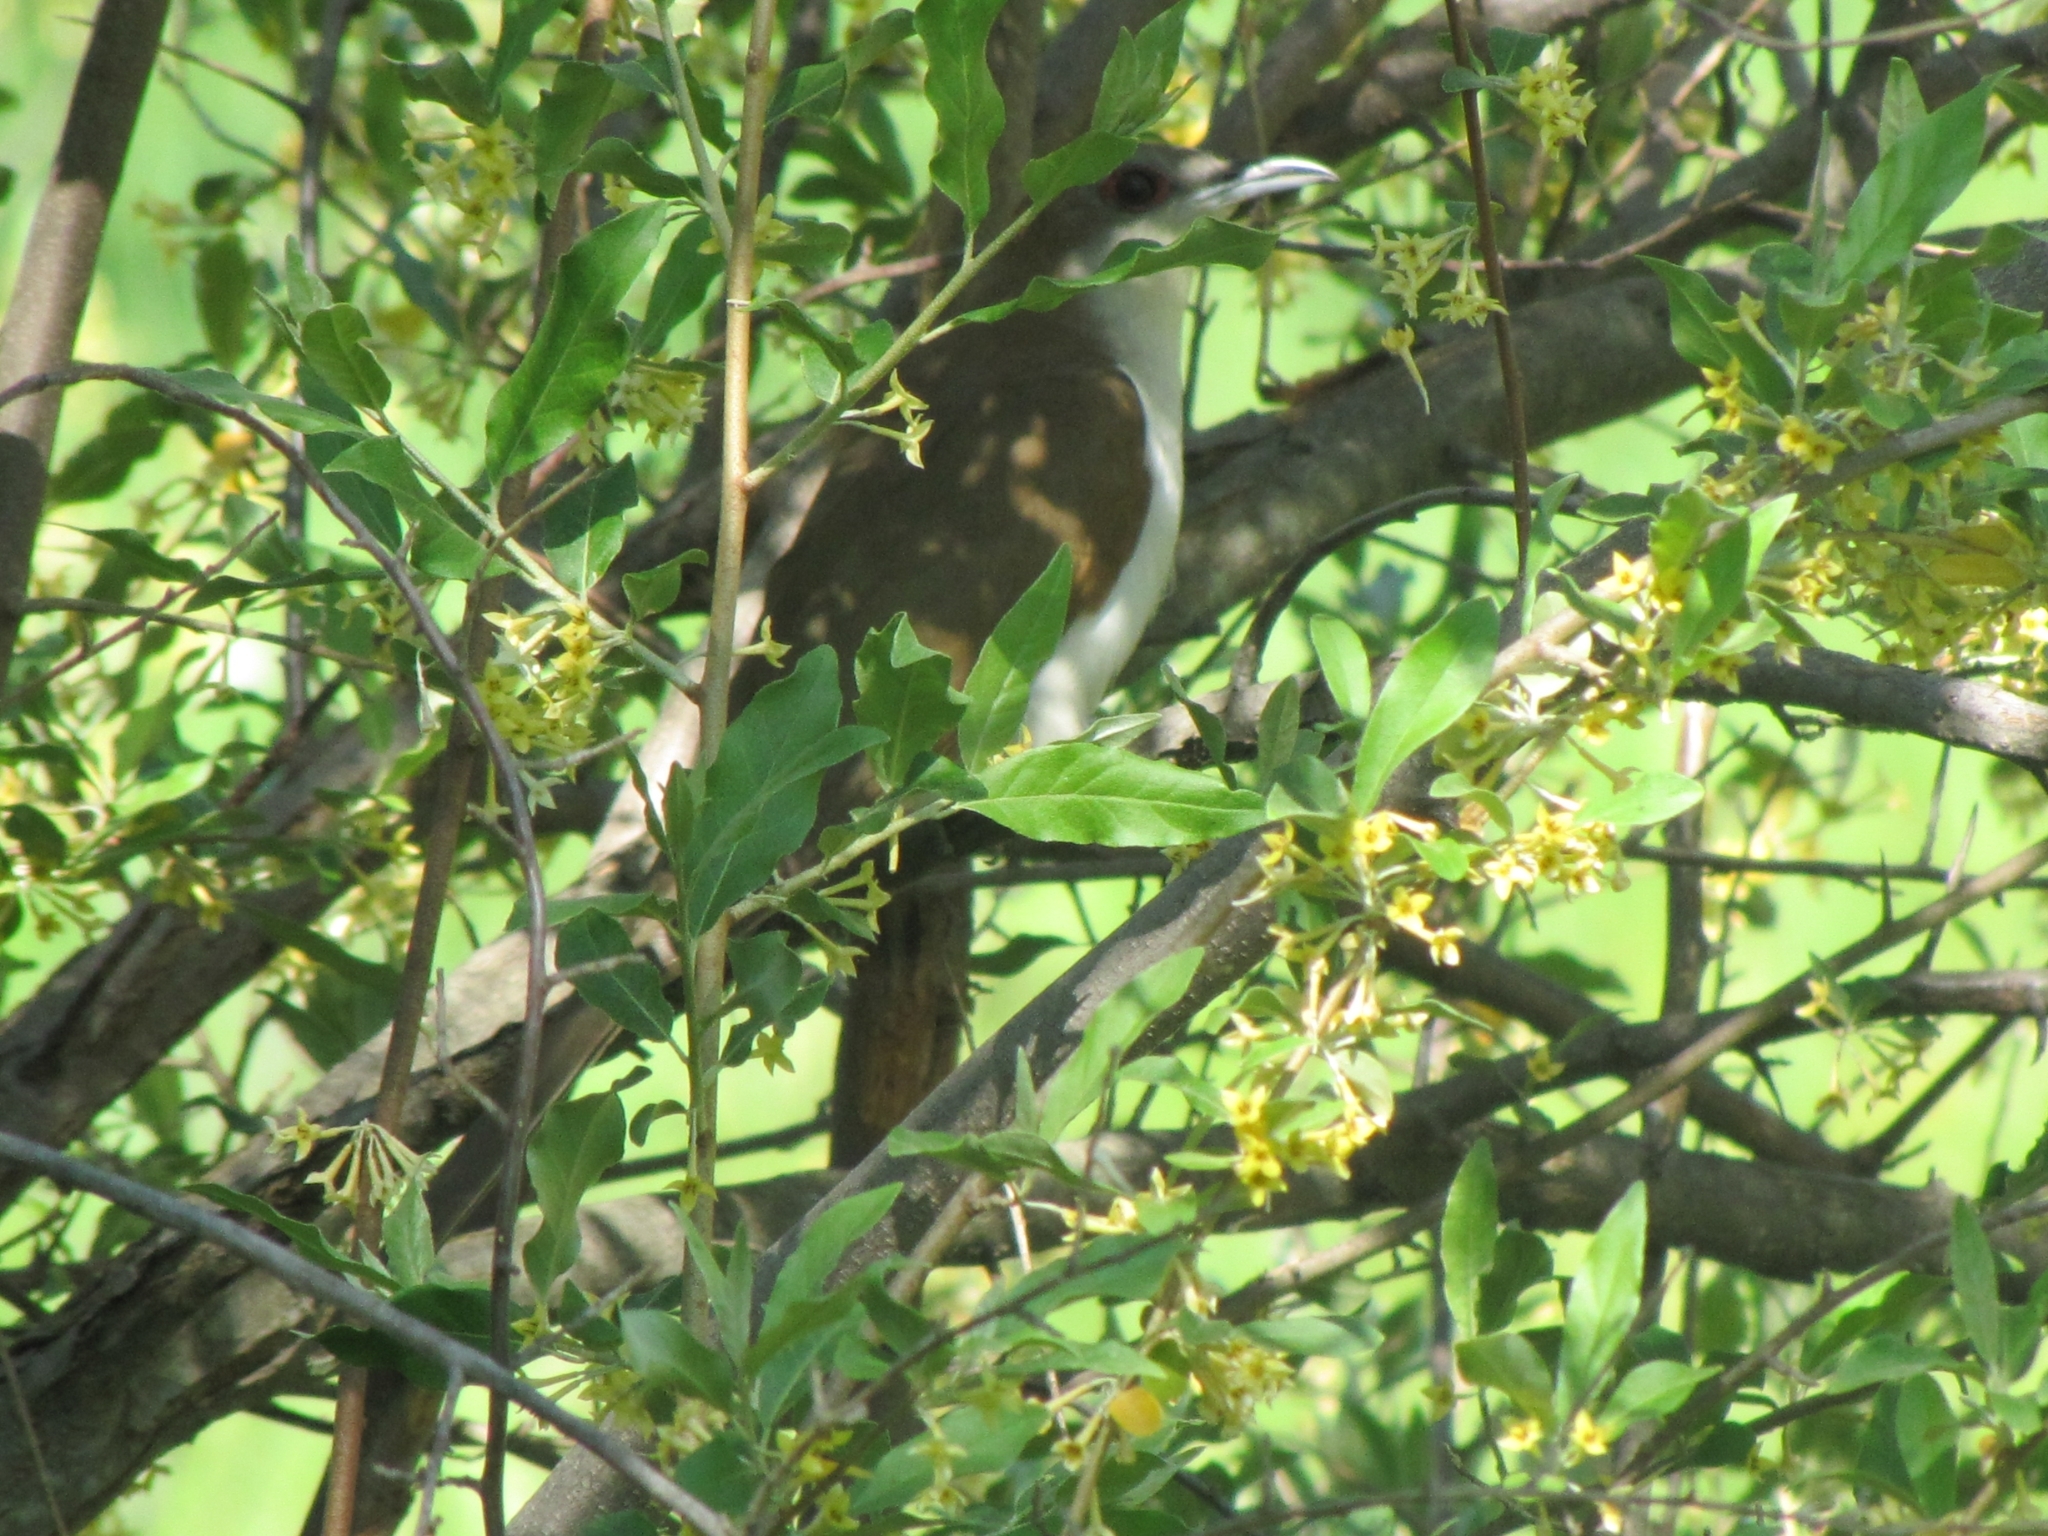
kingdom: Animalia
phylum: Chordata
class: Aves
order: Cuculiformes
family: Cuculidae
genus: Coccyzus
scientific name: Coccyzus erythropthalmus
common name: Black-billed cuckoo
